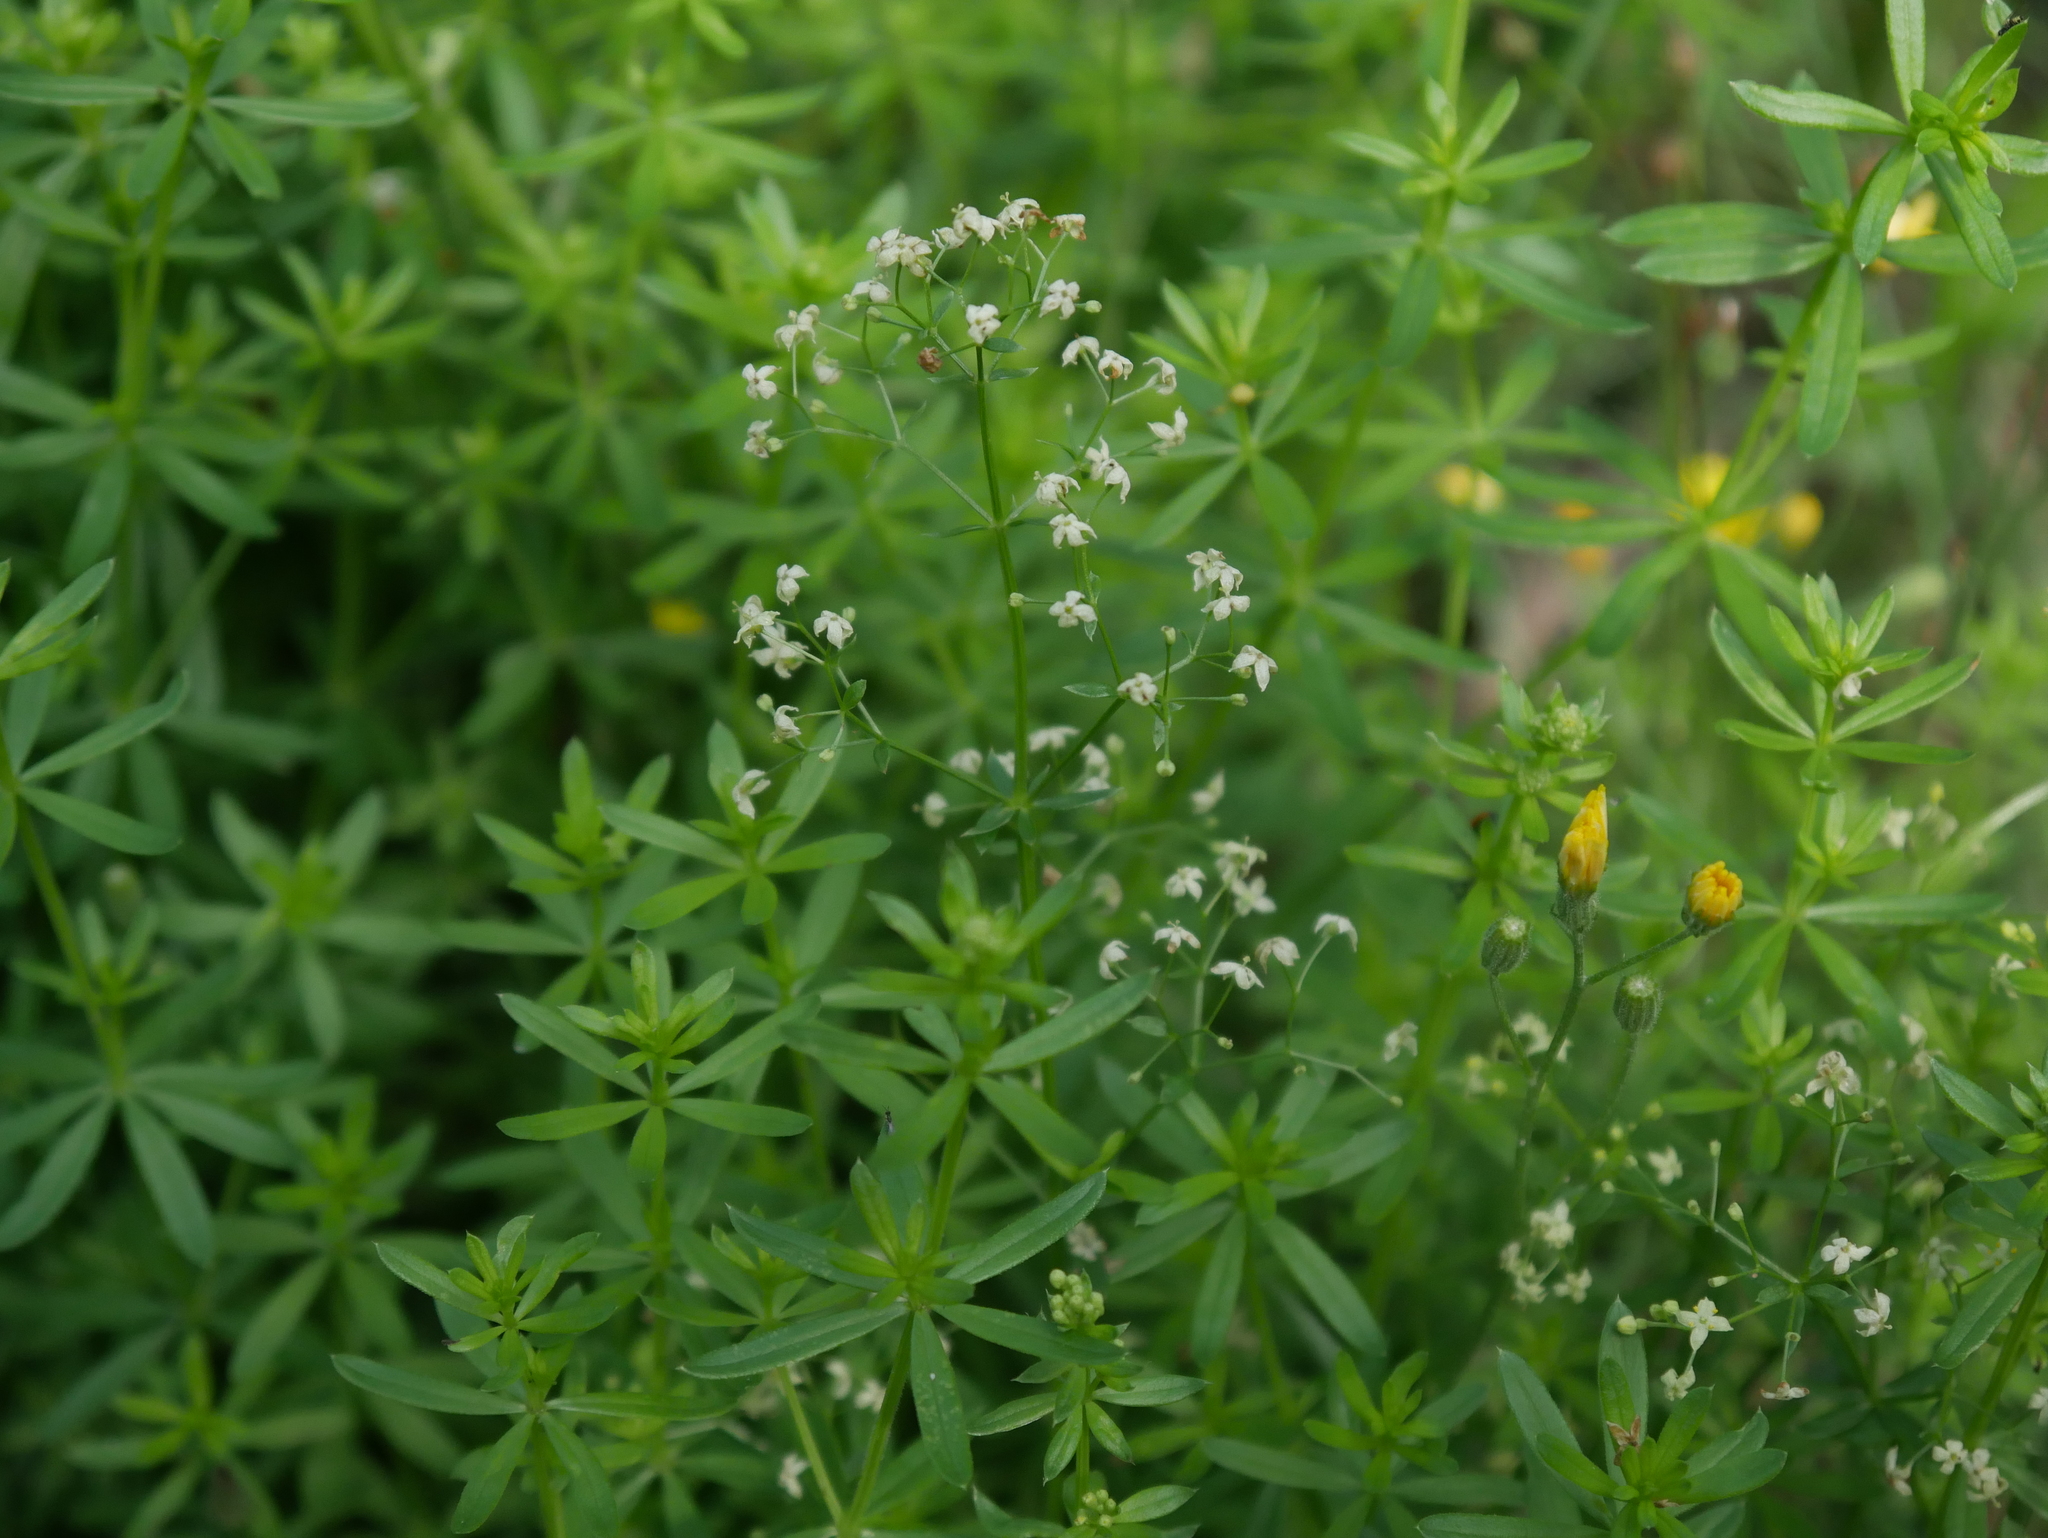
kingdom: Plantae
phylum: Tracheophyta
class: Magnoliopsida
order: Gentianales
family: Rubiaceae
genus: Galium
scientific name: Galium mollugo
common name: Hedge bedstraw
